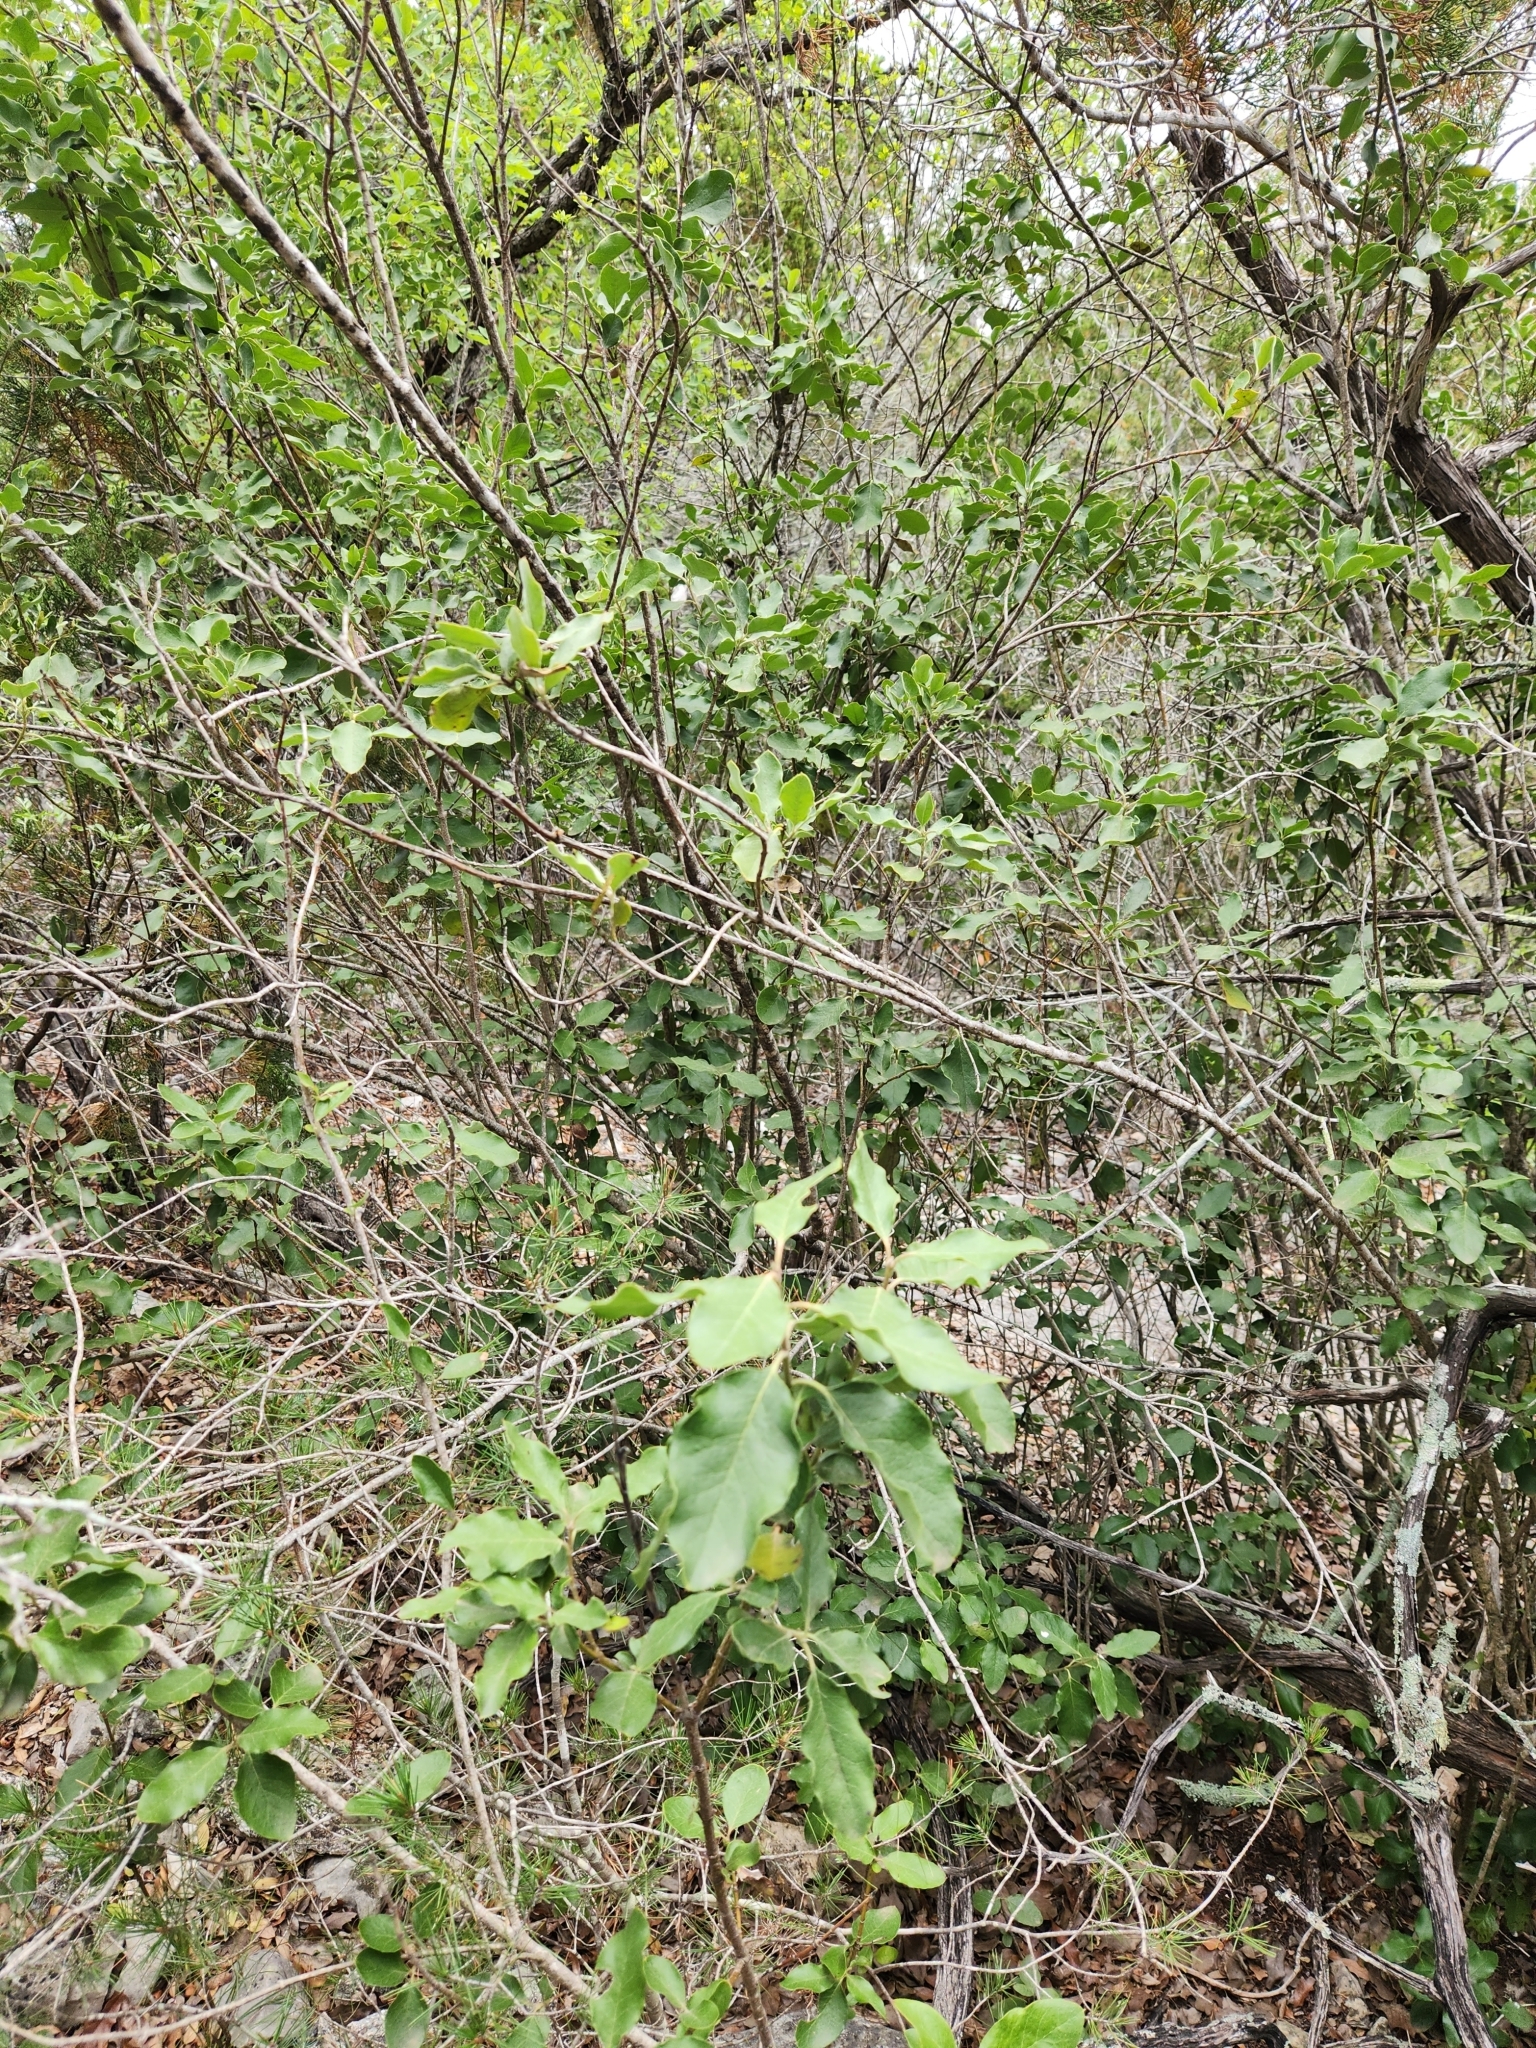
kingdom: Plantae
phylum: Tracheophyta
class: Magnoliopsida
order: Garryales
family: Garryaceae
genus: Garrya
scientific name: Garrya lindheimeri
